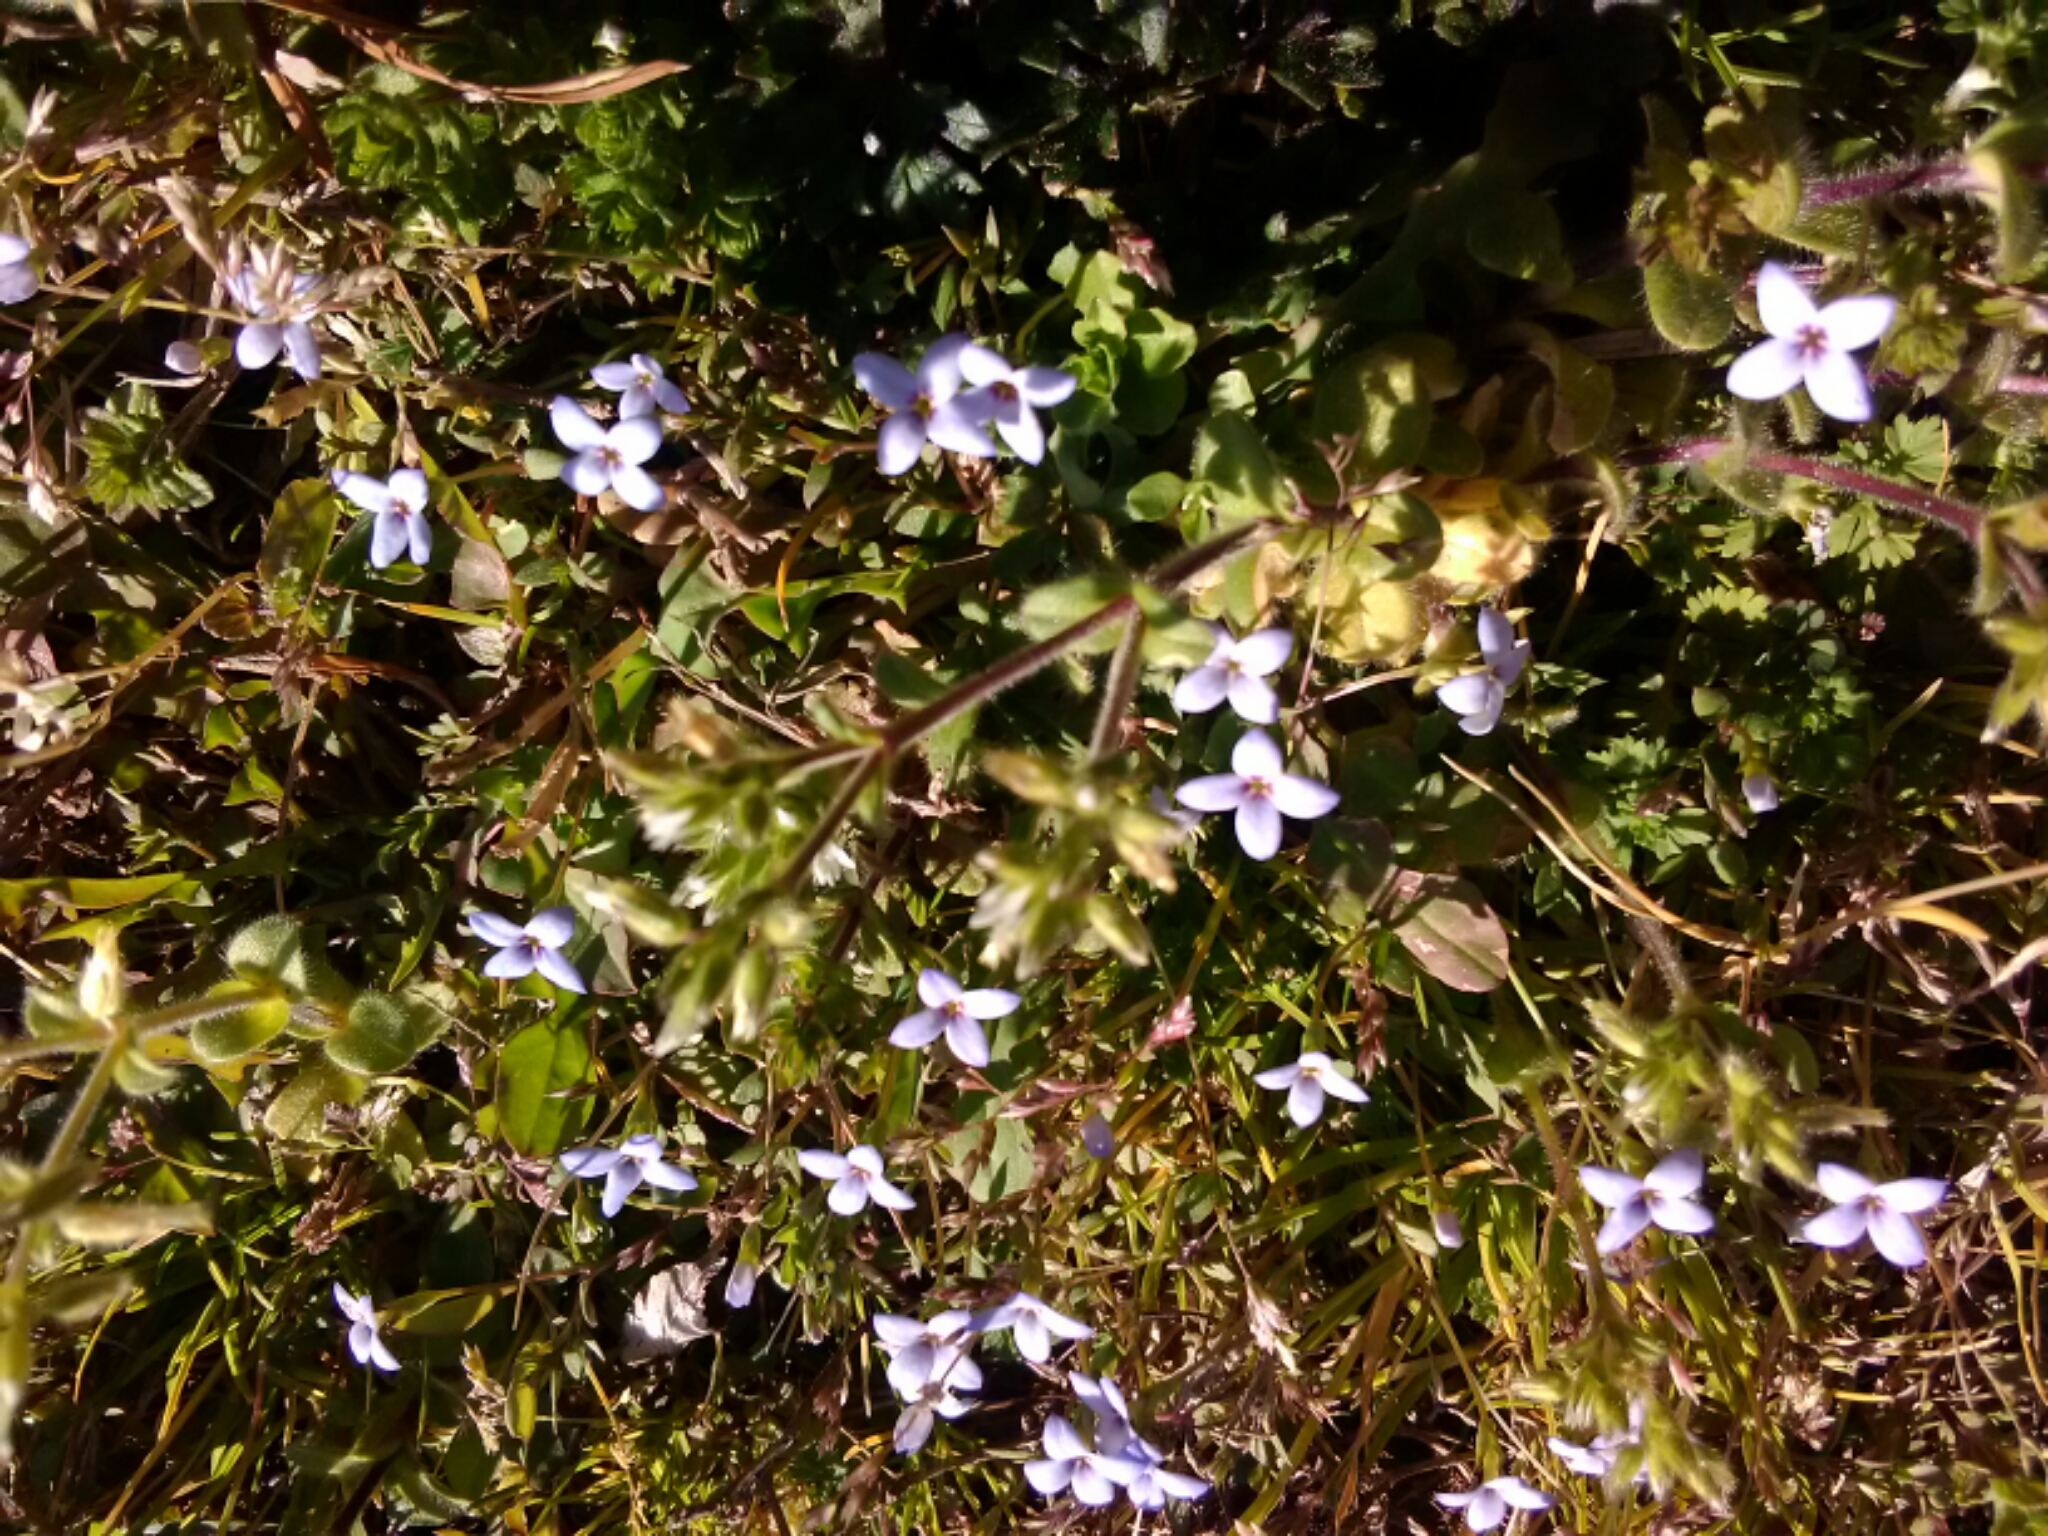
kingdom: Plantae
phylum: Tracheophyta
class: Magnoliopsida
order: Gentianales
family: Rubiaceae
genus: Houstonia
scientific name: Houstonia pusilla
